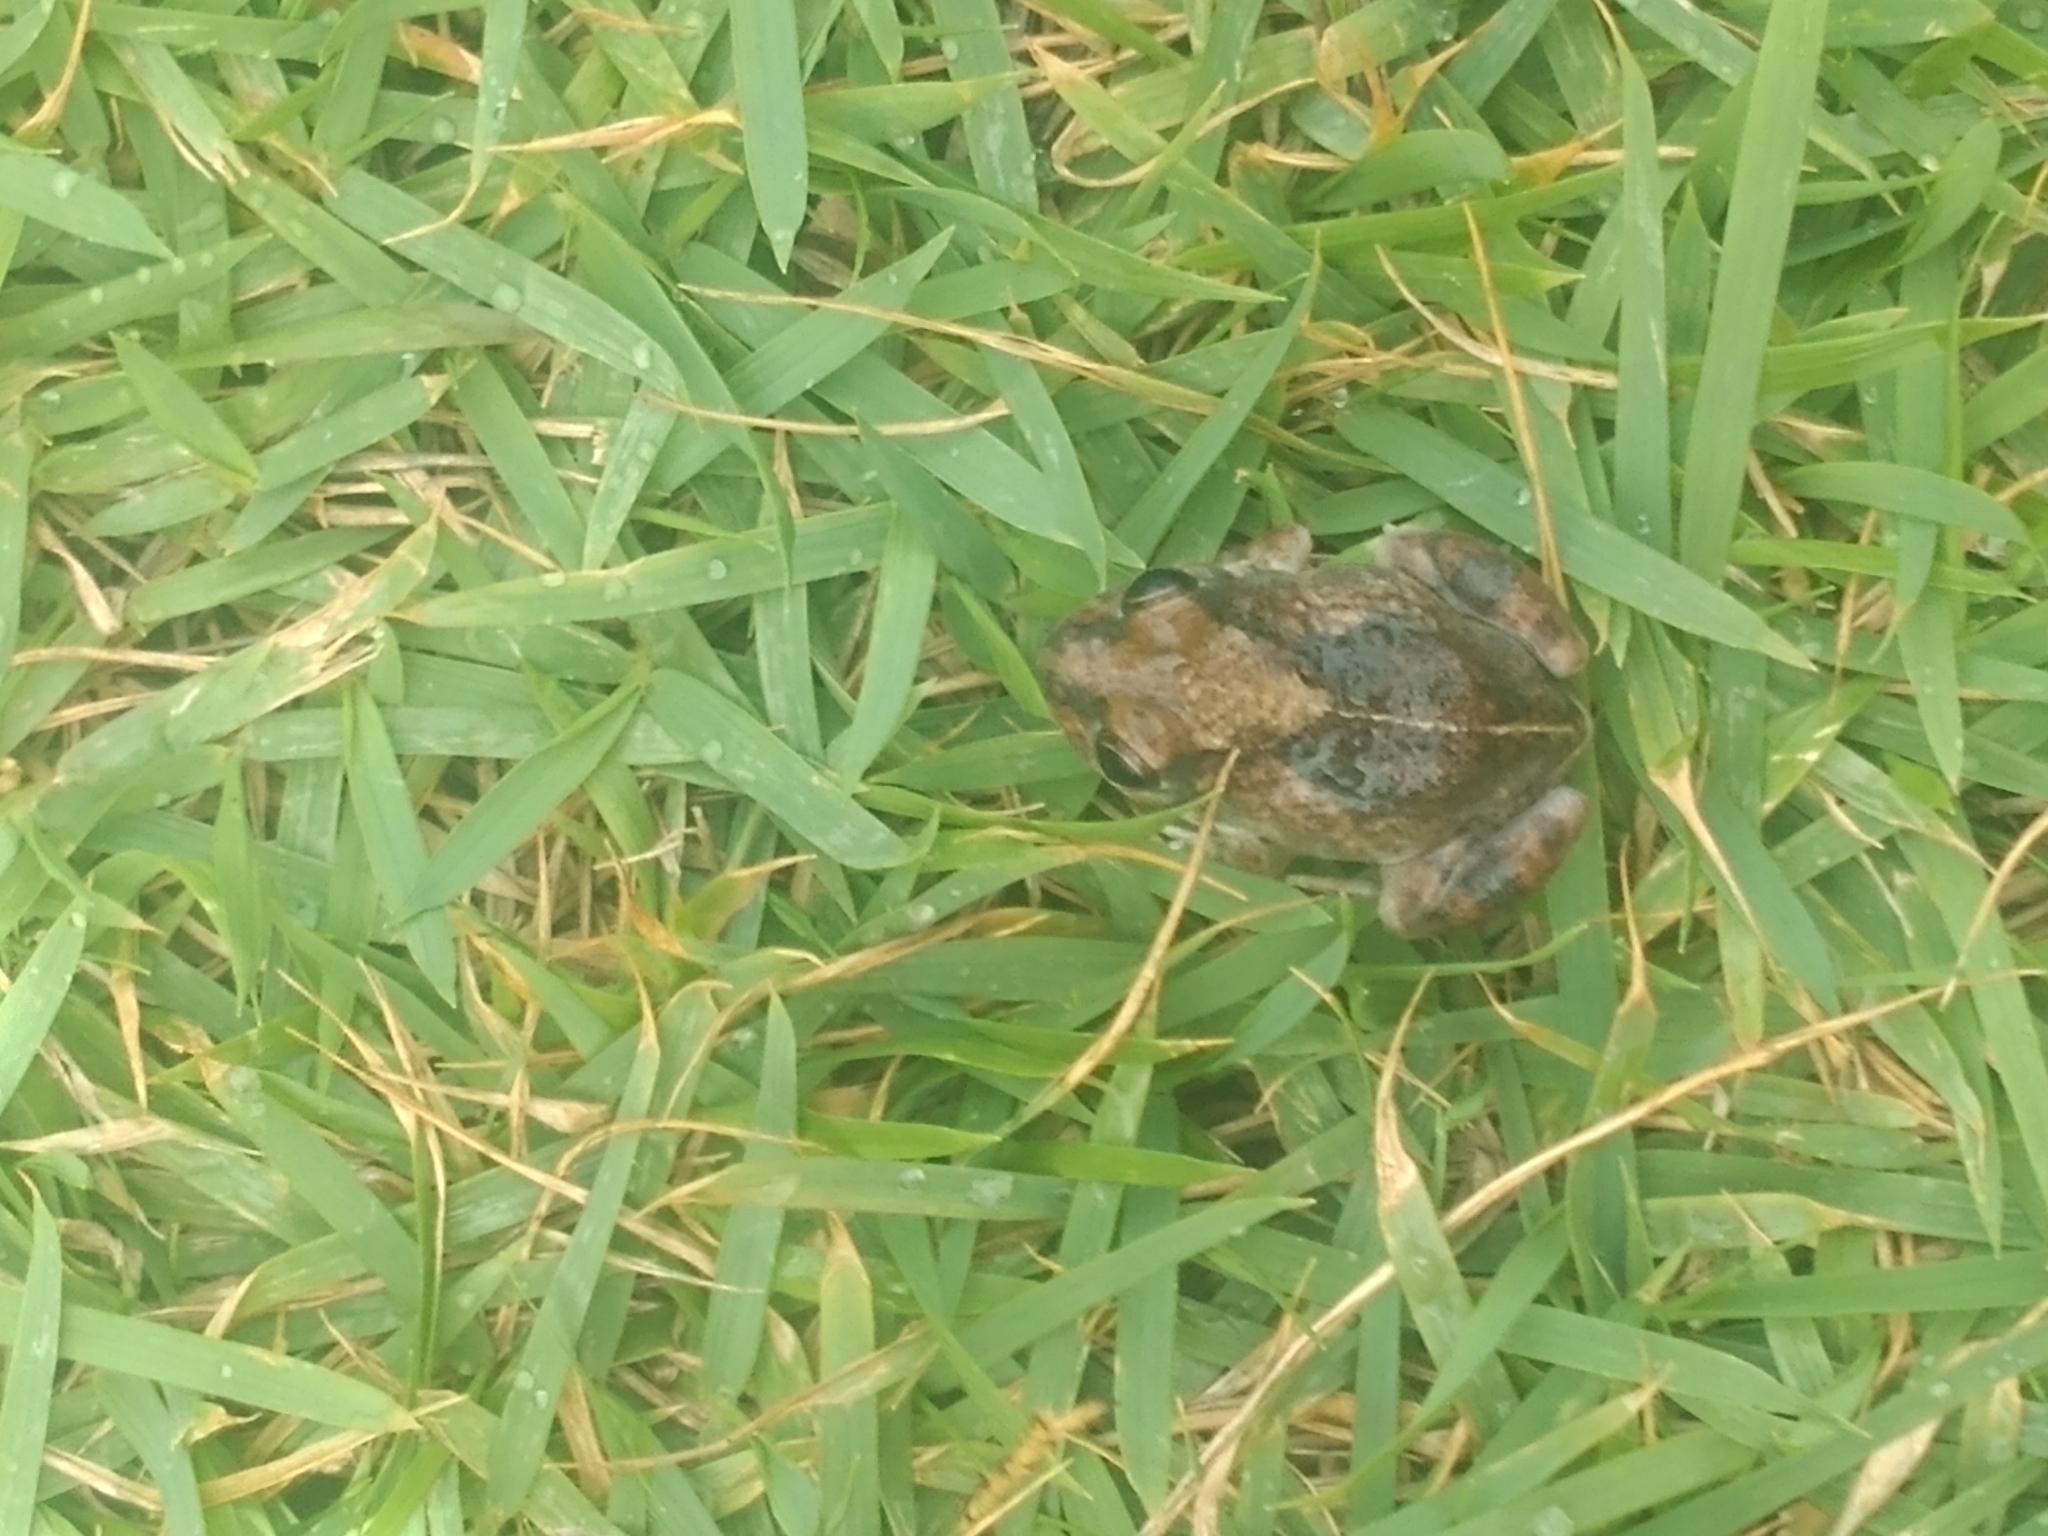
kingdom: Animalia
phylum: Chordata
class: Amphibia
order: Anura
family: Leptodactylidae
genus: Pleurodema
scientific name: Pleurodema diplolister
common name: Peters' four-eyed frog
